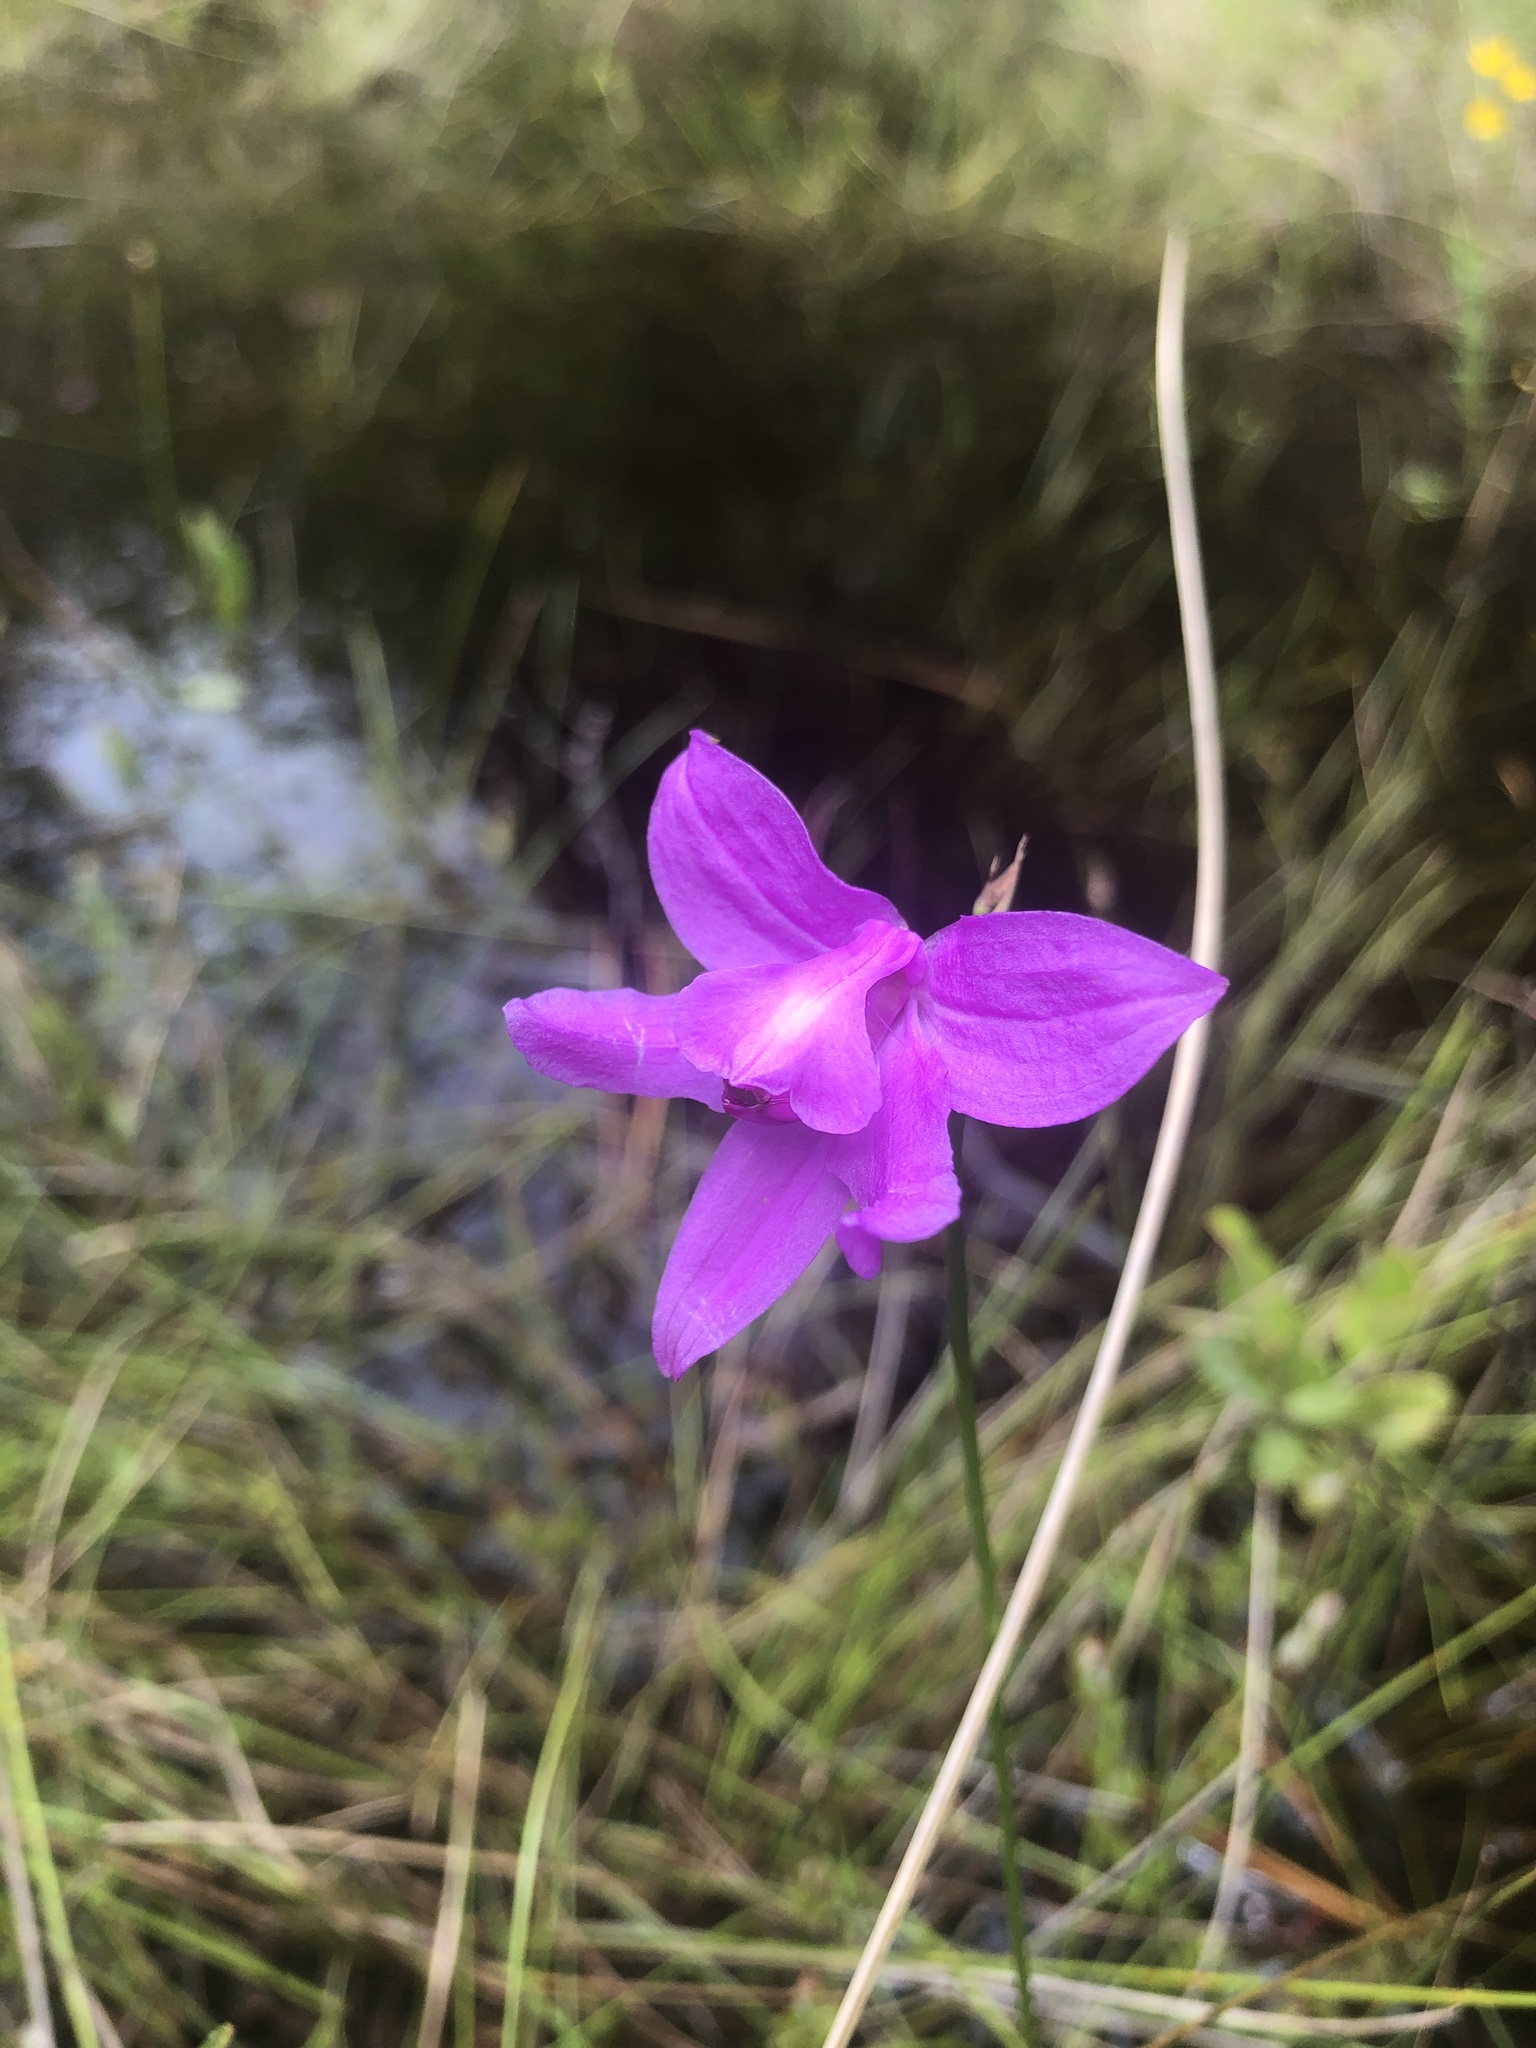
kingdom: Plantae
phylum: Tracheophyta
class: Liliopsida
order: Asparagales
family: Orchidaceae
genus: Calopogon
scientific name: Calopogon tuberosus
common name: Grass-pink
